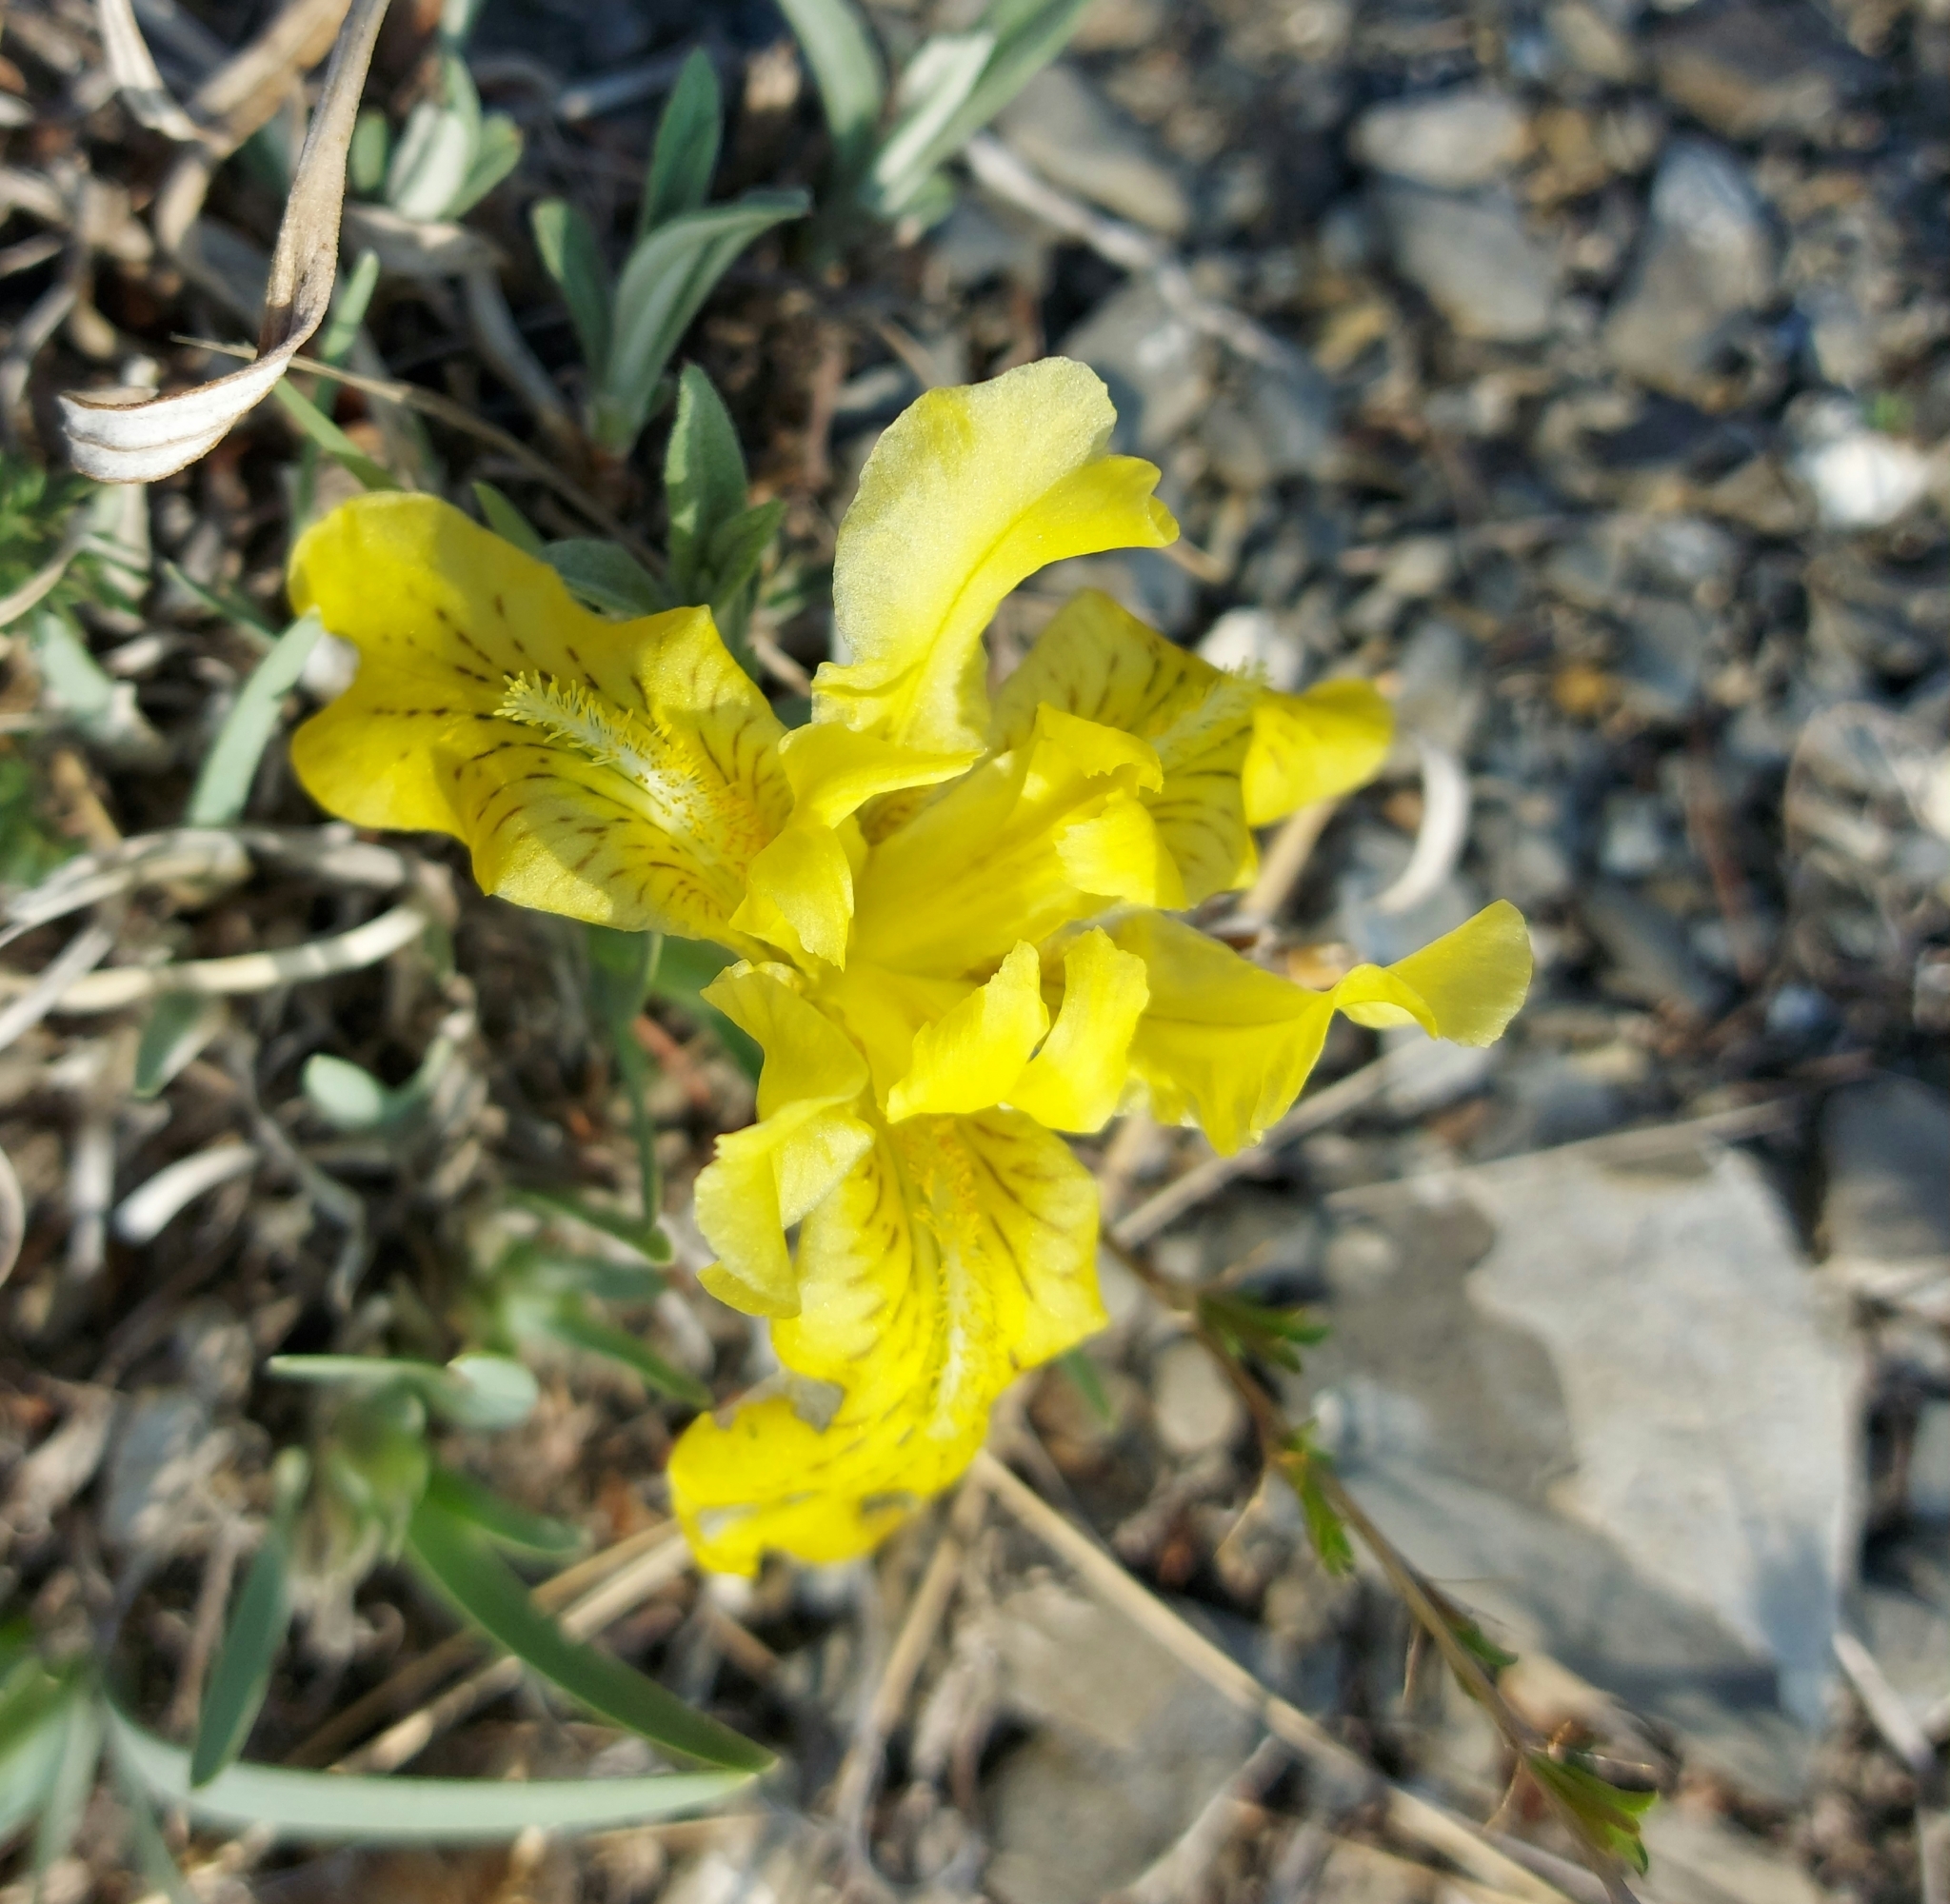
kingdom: Plantae
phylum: Tracheophyta
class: Liliopsida
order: Asparagales
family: Iridaceae
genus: Iris
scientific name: Iris potaninii
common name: Curl-sheath iris
